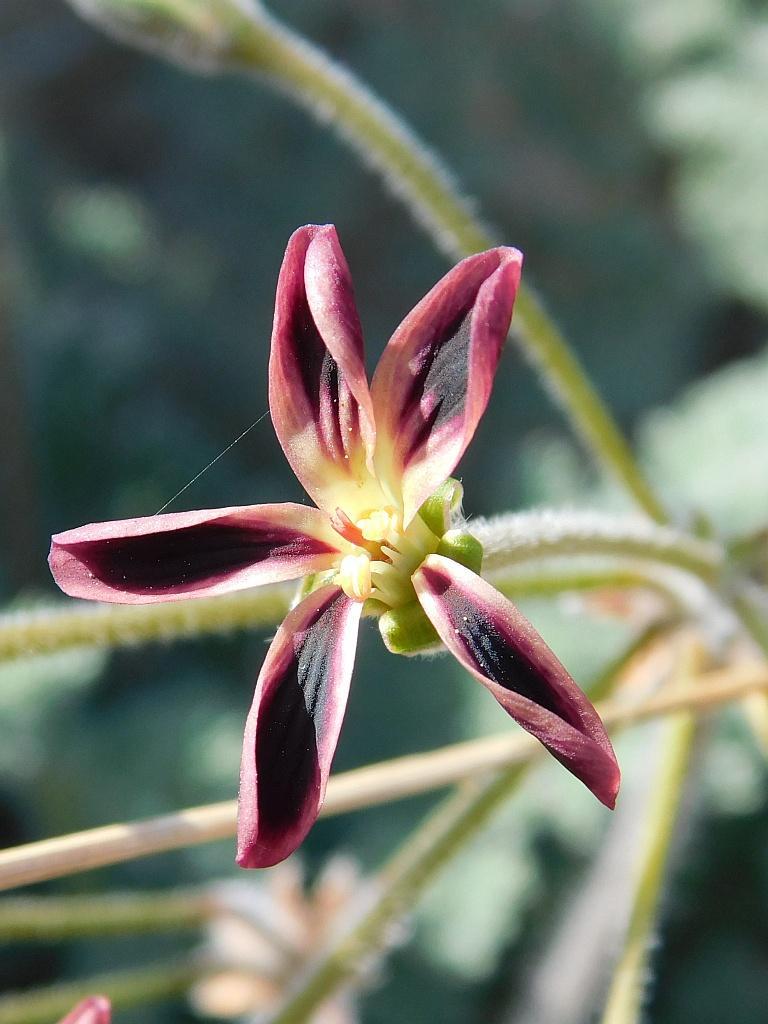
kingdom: Plantae
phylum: Tracheophyta
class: Magnoliopsida
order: Geraniales
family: Geraniaceae
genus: Pelargonium
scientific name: Pelargonium triste
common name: Night-scent pelargonium
